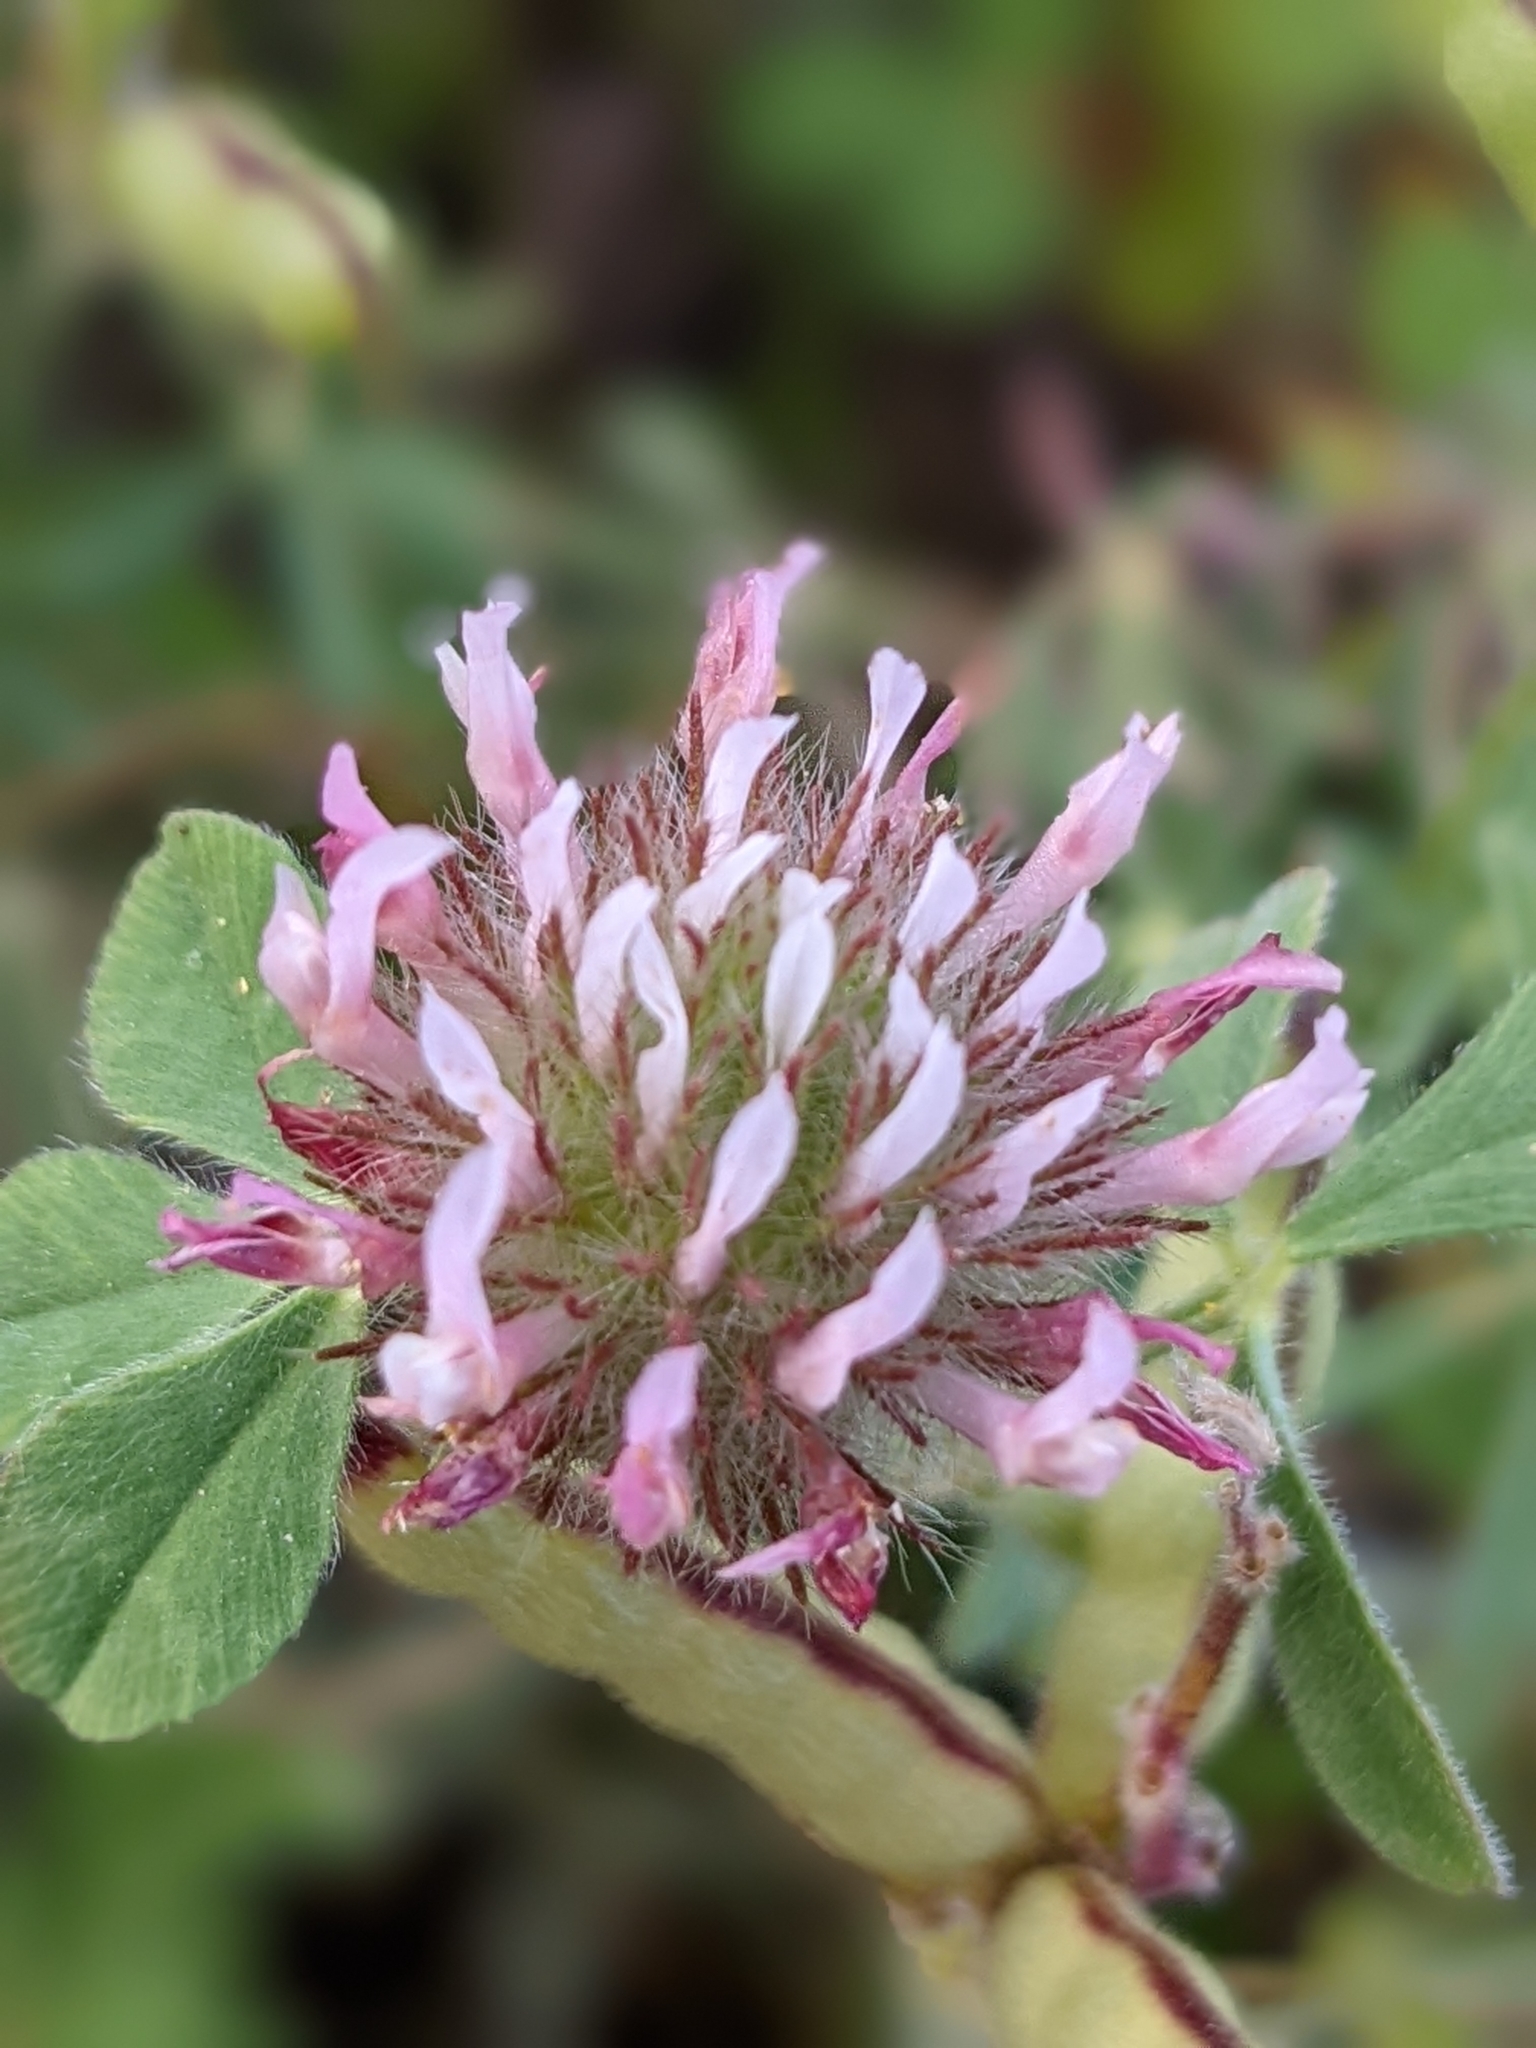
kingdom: Plantae
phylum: Tracheophyta
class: Magnoliopsida
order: Fabales
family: Fabaceae
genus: Trifolium
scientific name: Trifolium hirtum
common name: Rose clover
